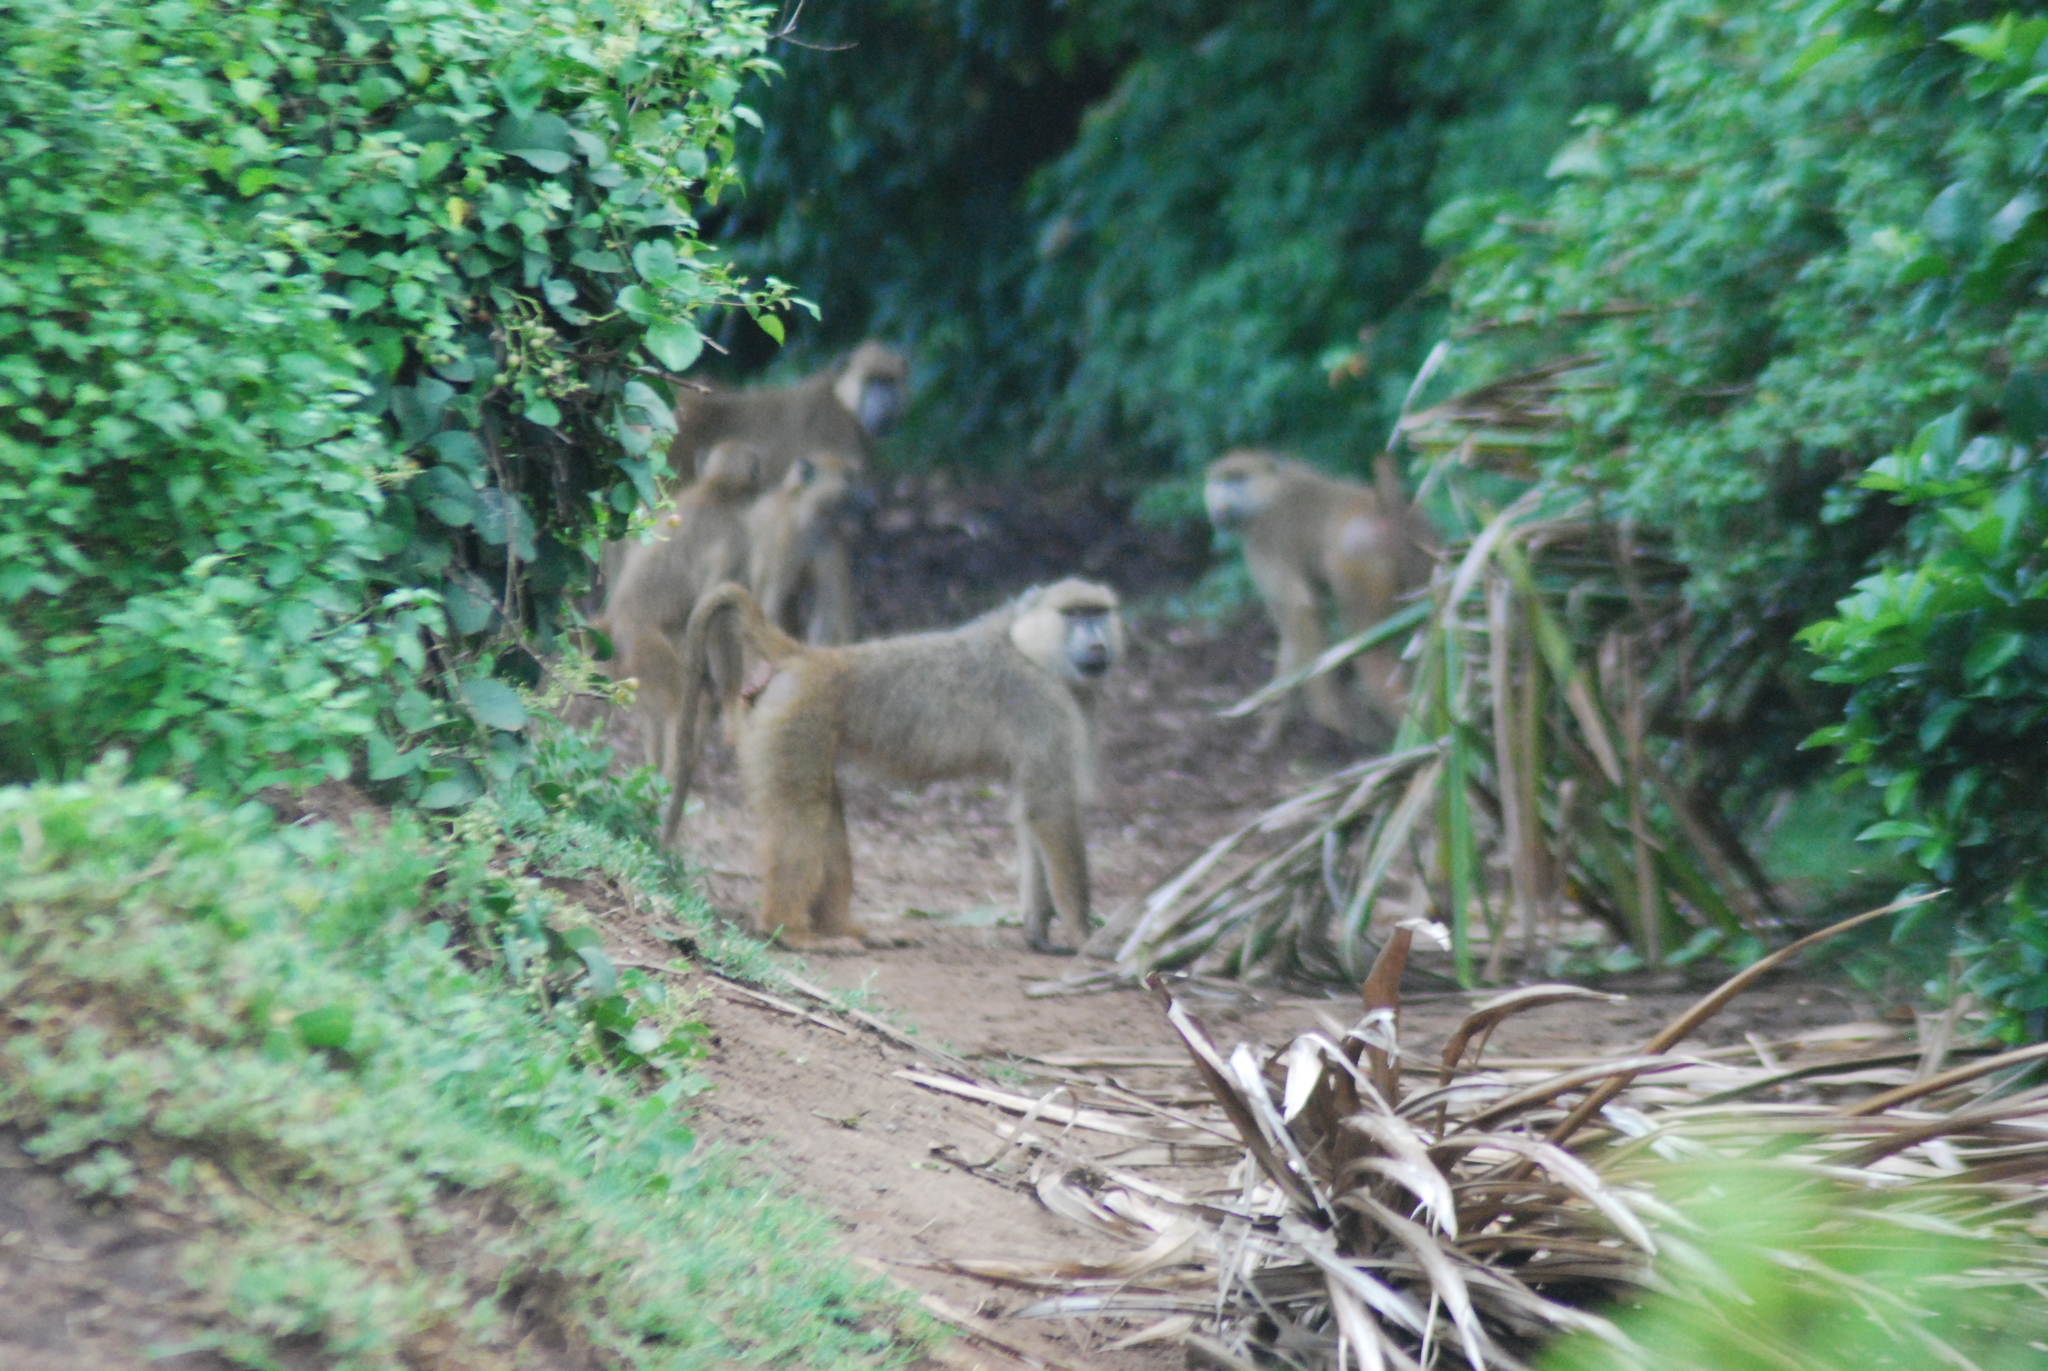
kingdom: Animalia
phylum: Chordata
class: Mammalia
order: Primates
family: Cercopithecidae
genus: Papio
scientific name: Papio cynocephalus
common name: Yellow baboon
